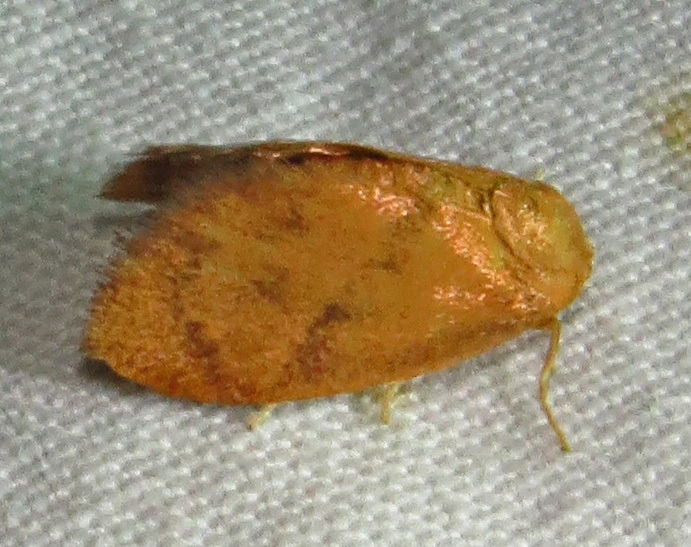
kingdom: Animalia
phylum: Arthropoda
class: Insecta
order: Lepidoptera
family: Limacodidae
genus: Heterogenea
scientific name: Heterogenea shurtleffi
